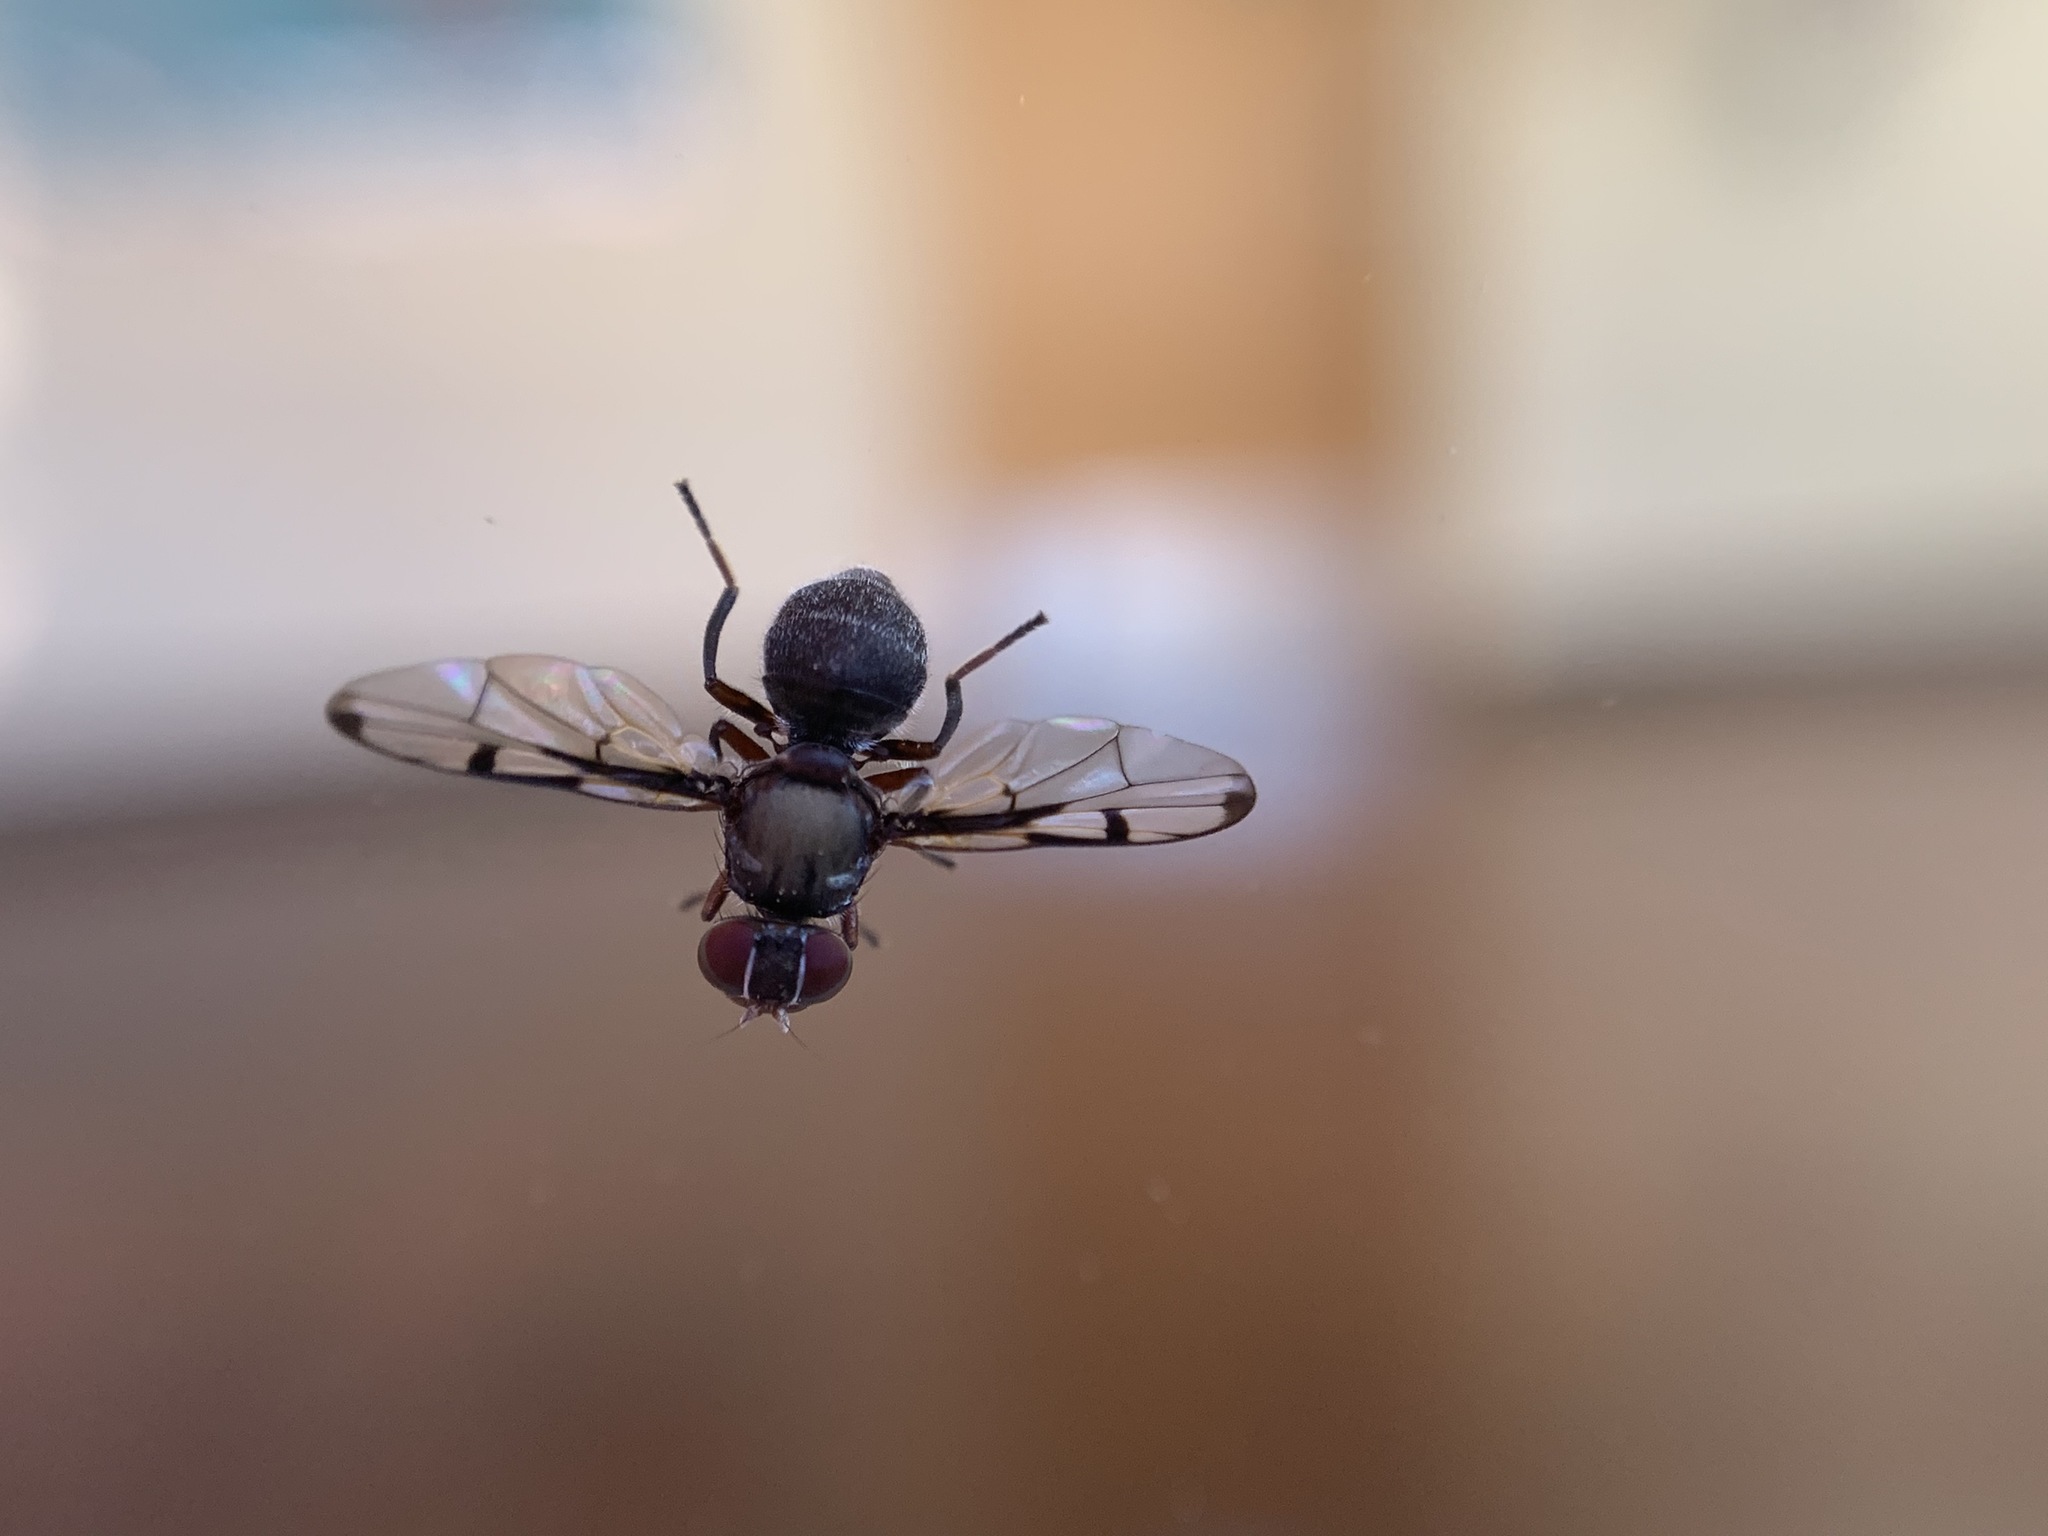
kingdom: Animalia
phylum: Arthropoda
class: Insecta
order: Diptera
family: Platystomatidae
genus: Pogonortalis
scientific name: Pogonortalis doclea
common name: Boatman fly
